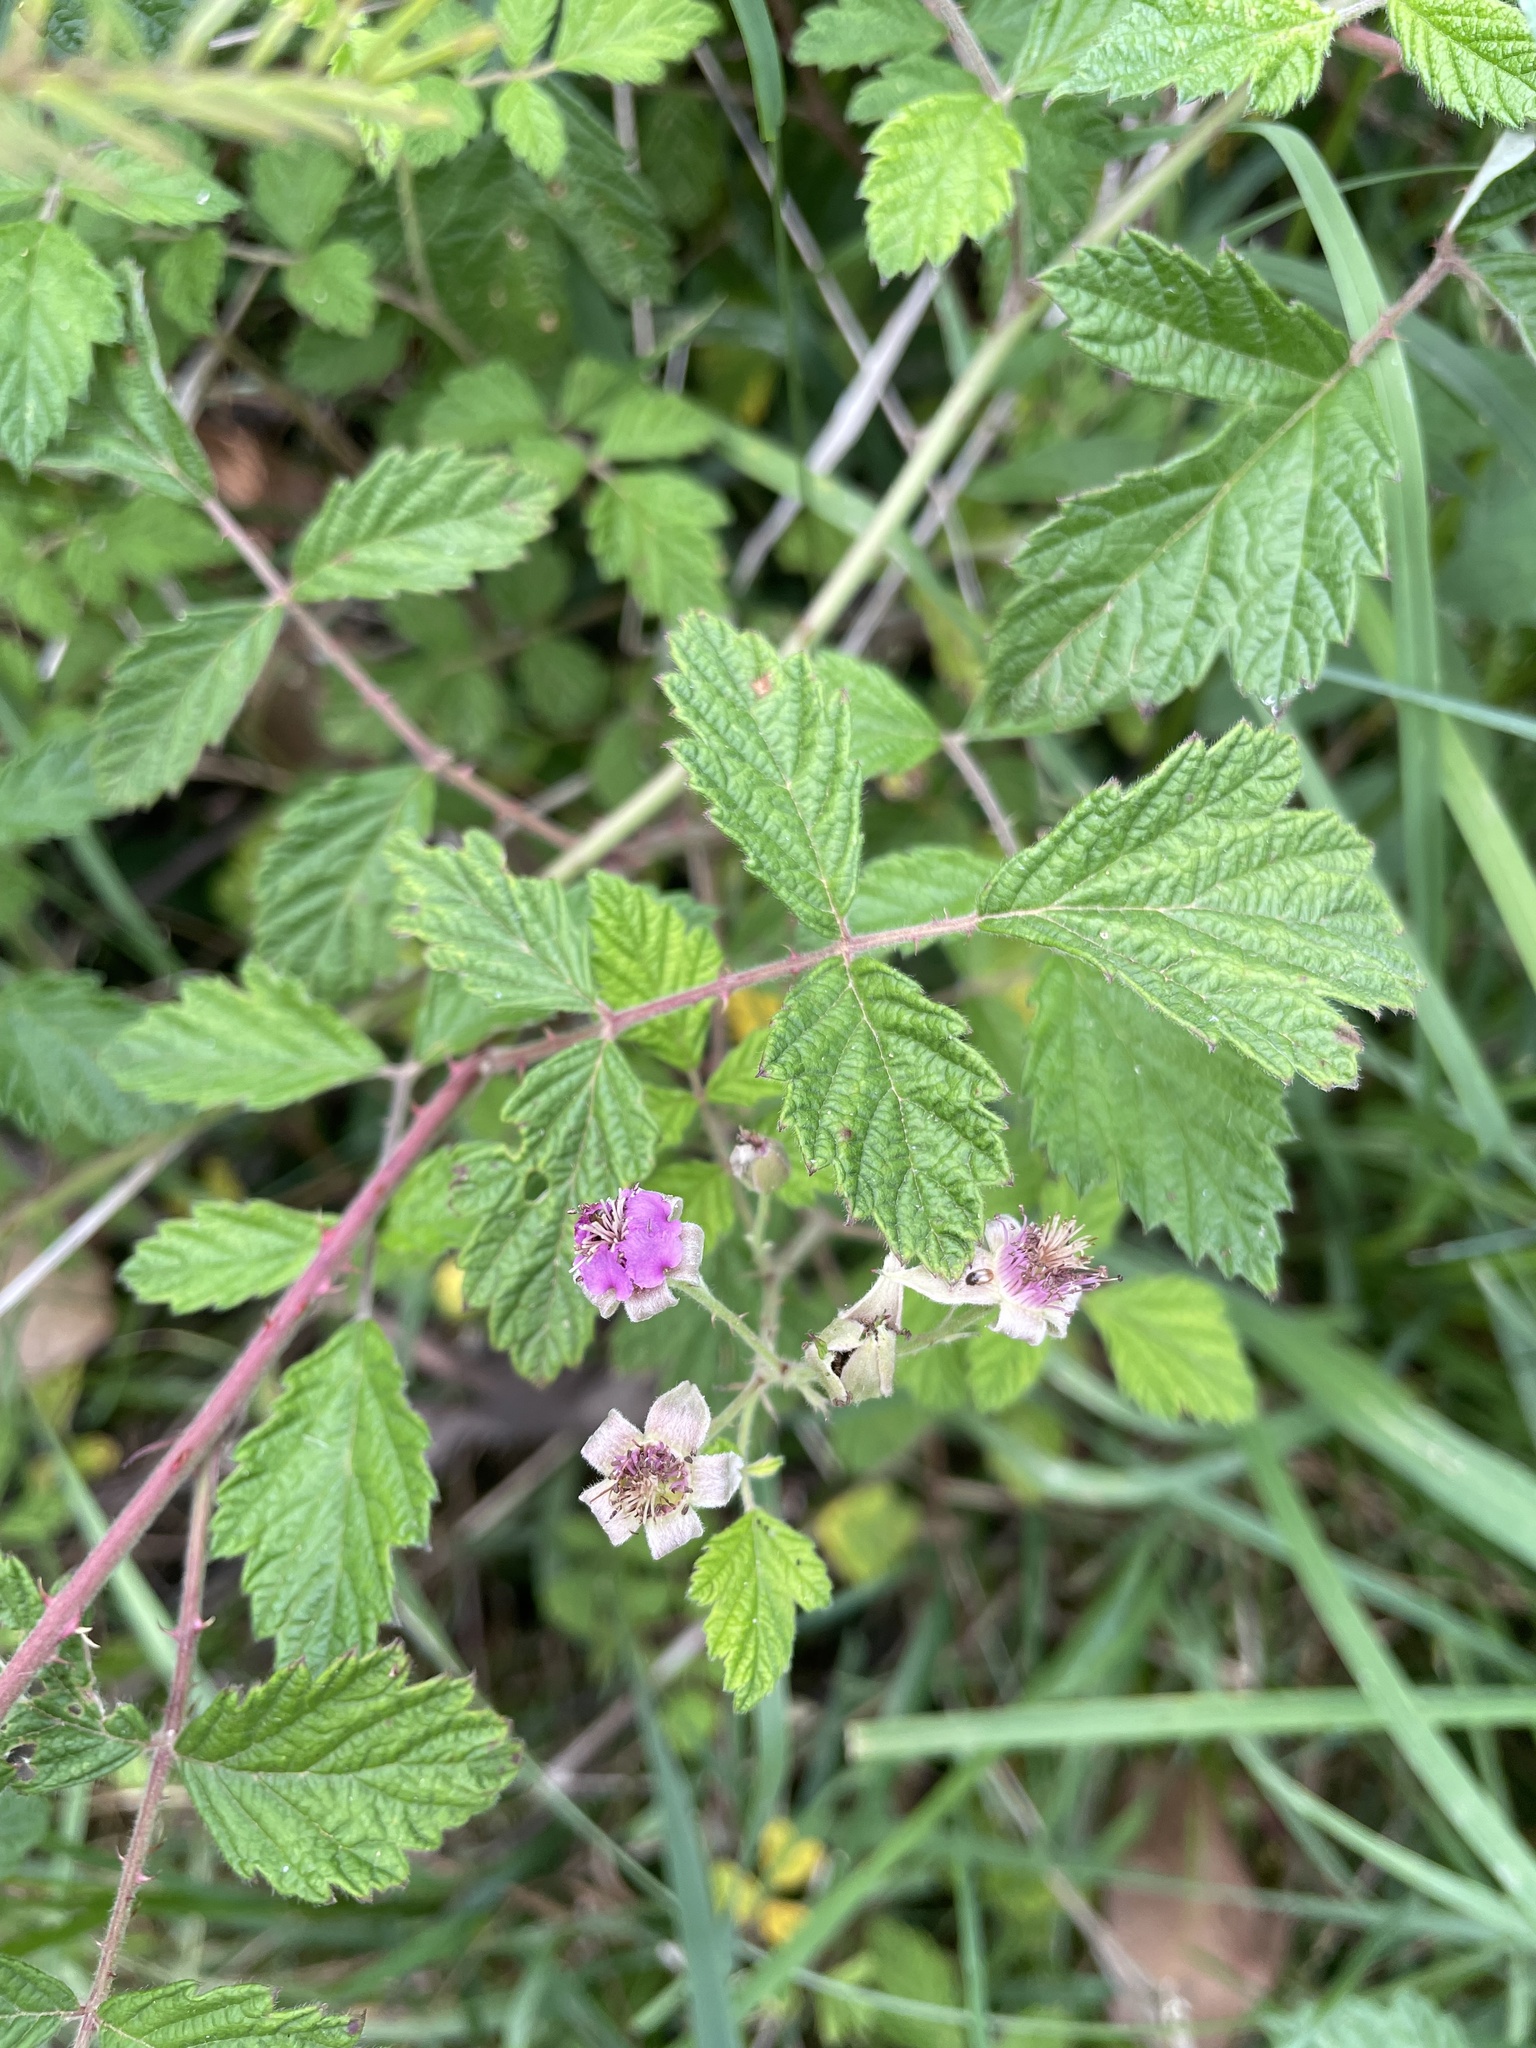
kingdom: Plantae
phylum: Tracheophyta
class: Magnoliopsida
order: Rosales
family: Rosaceae
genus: Rubus
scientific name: Rubus parvifolius
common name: Threeleaf blackberry
